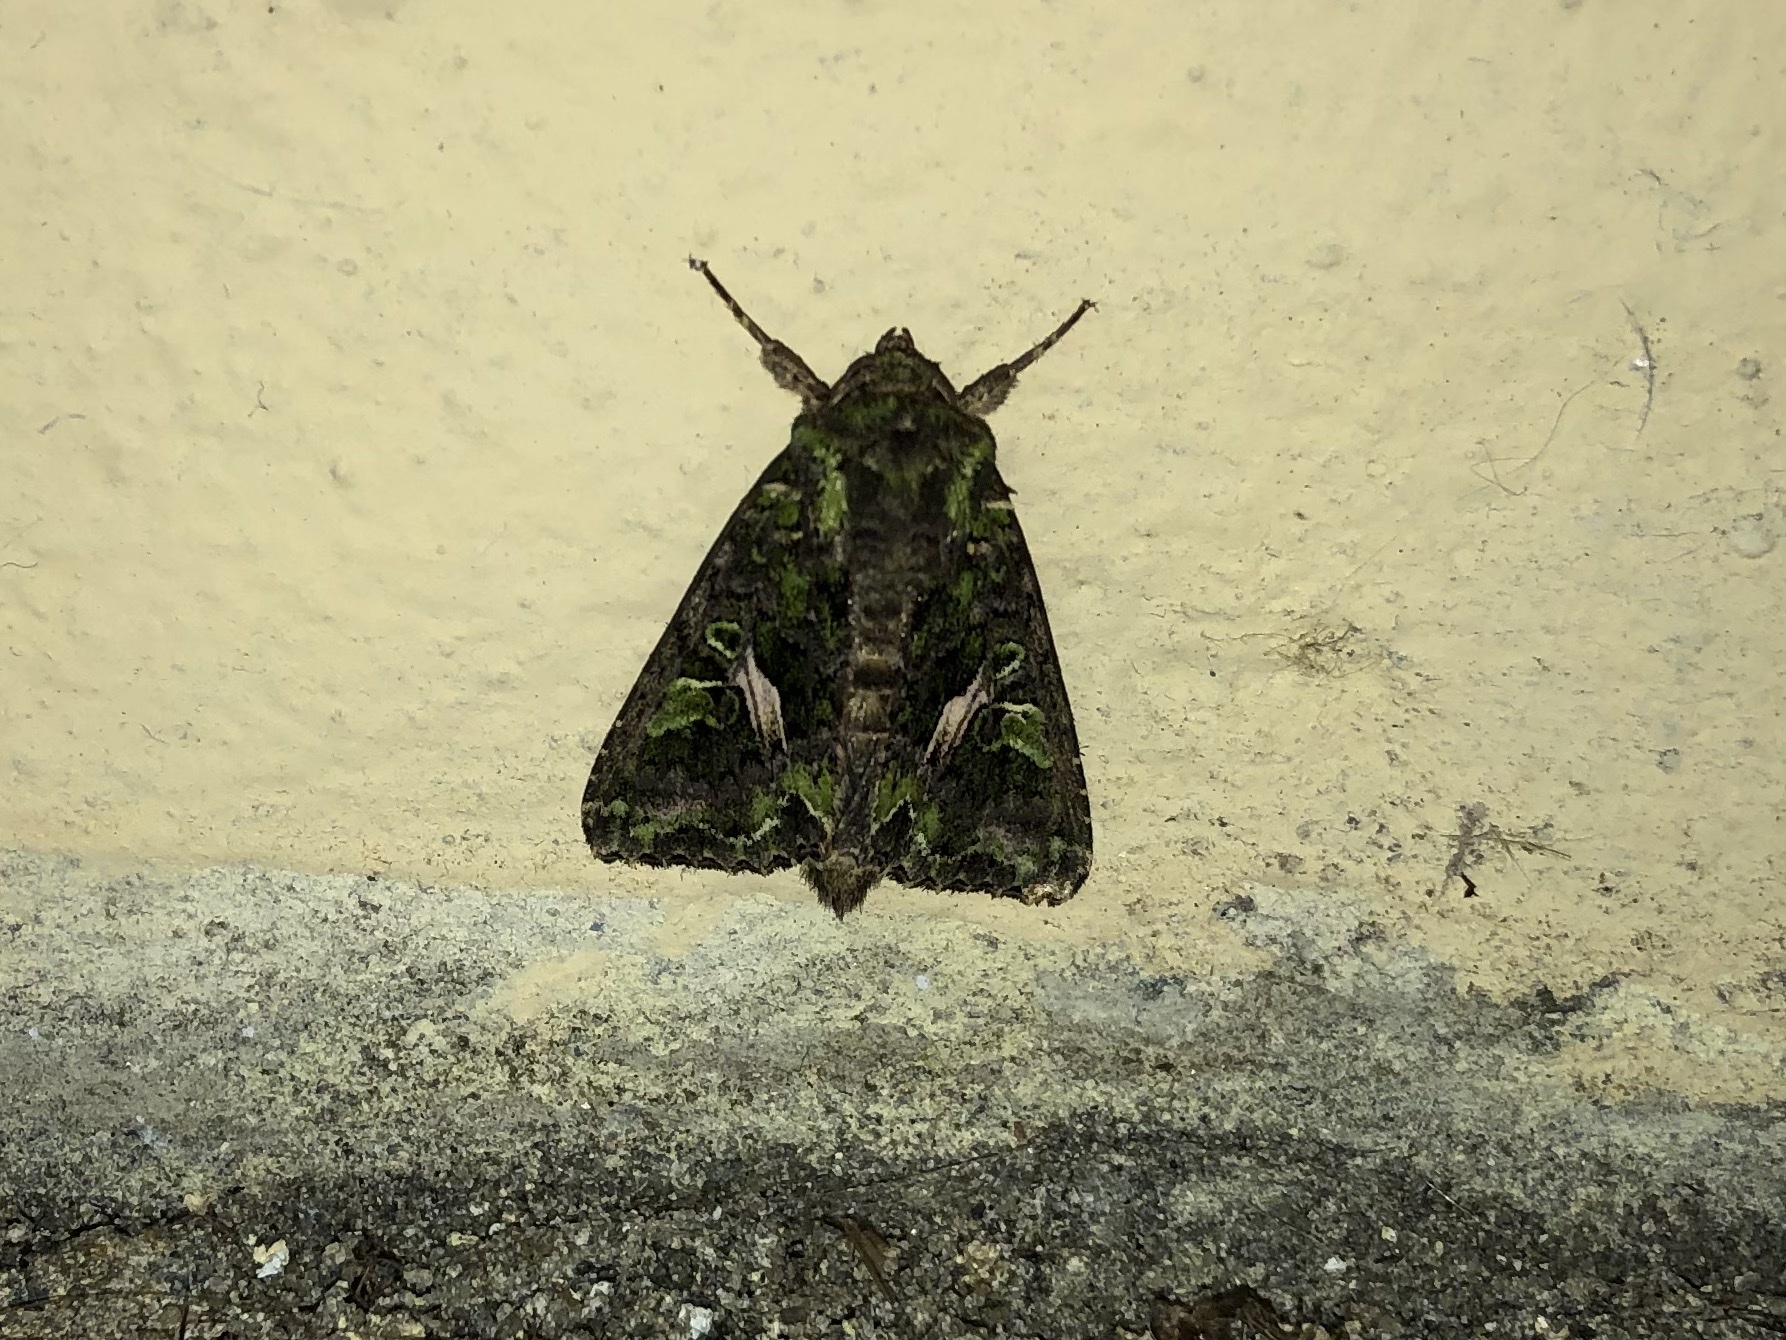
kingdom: Animalia
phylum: Arthropoda
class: Insecta
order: Lepidoptera
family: Noctuidae
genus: Trachea
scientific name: Trachea atriplicis
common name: Orache moth
